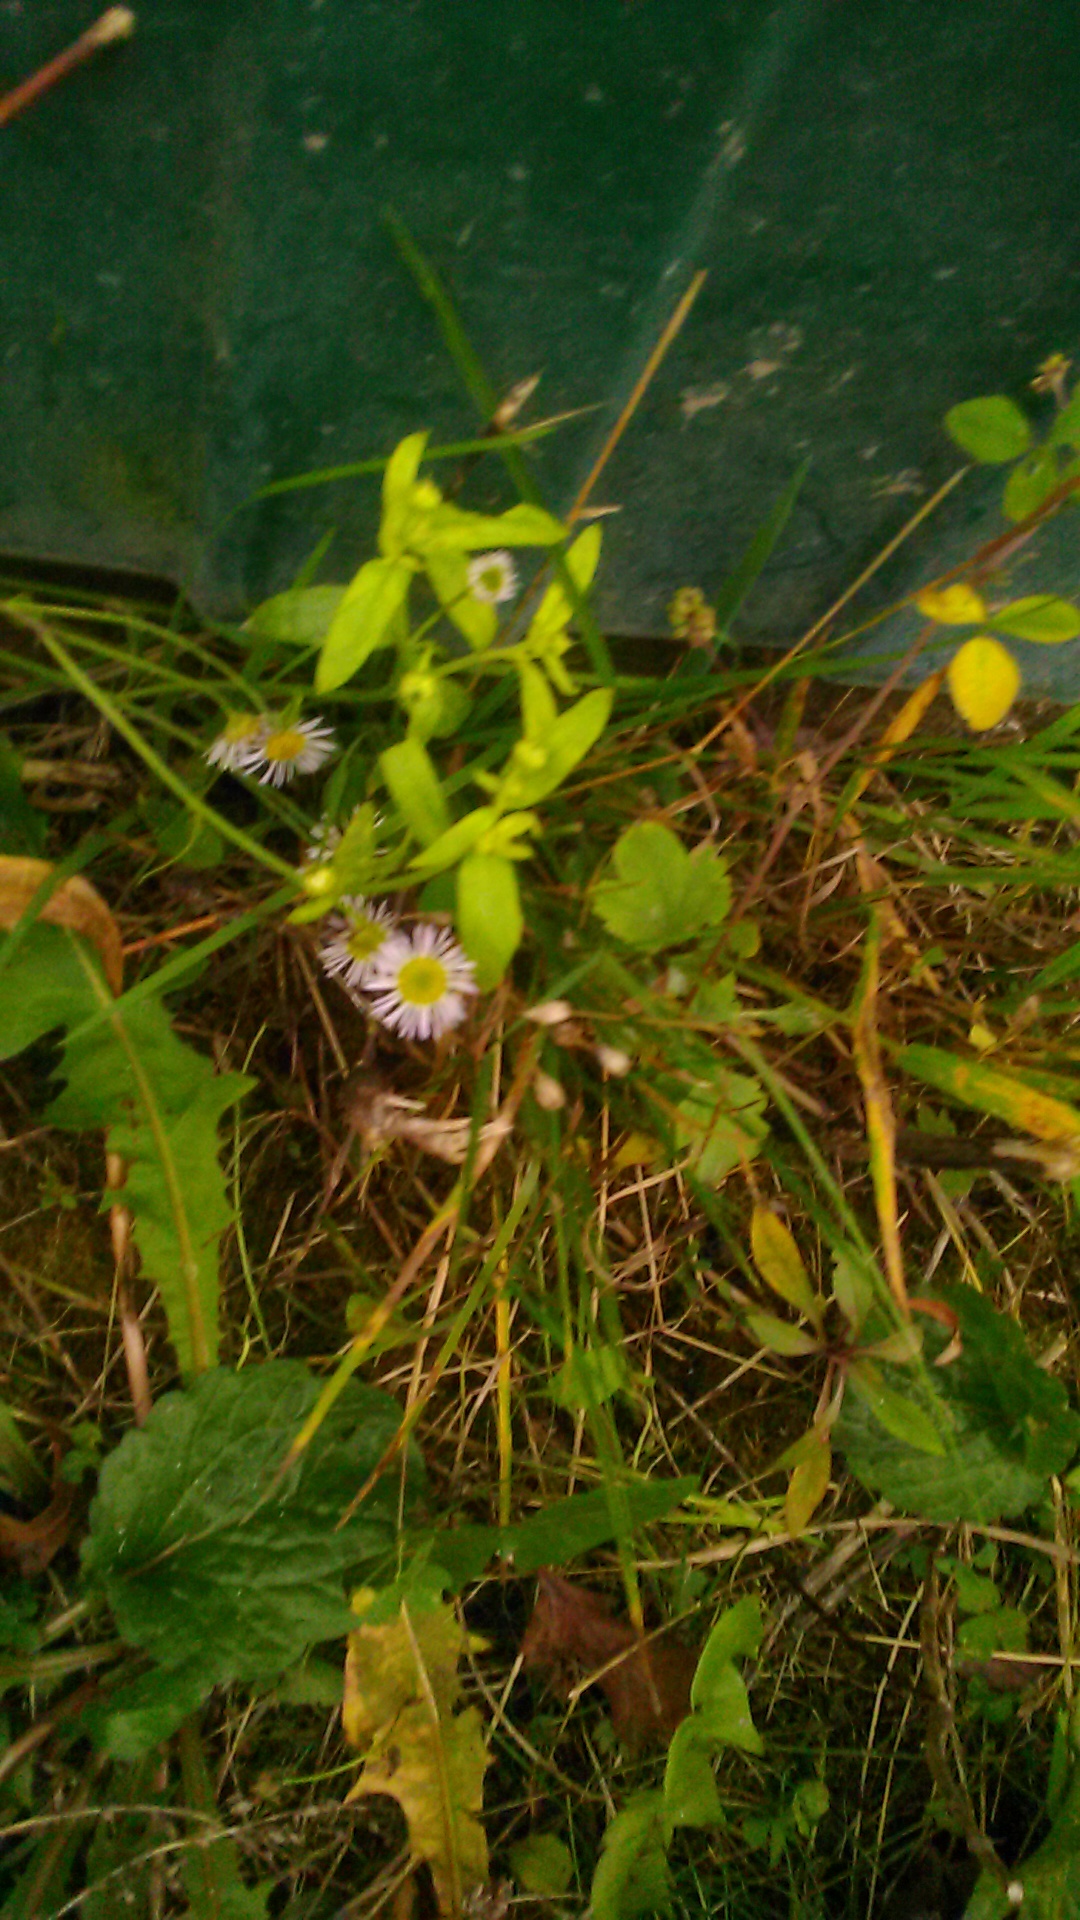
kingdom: Plantae
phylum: Tracheophyta
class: Magnoliopsida
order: Asterales
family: Asteraceae
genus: Erigeron
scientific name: Erigeron annuus
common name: Tall fleabane
